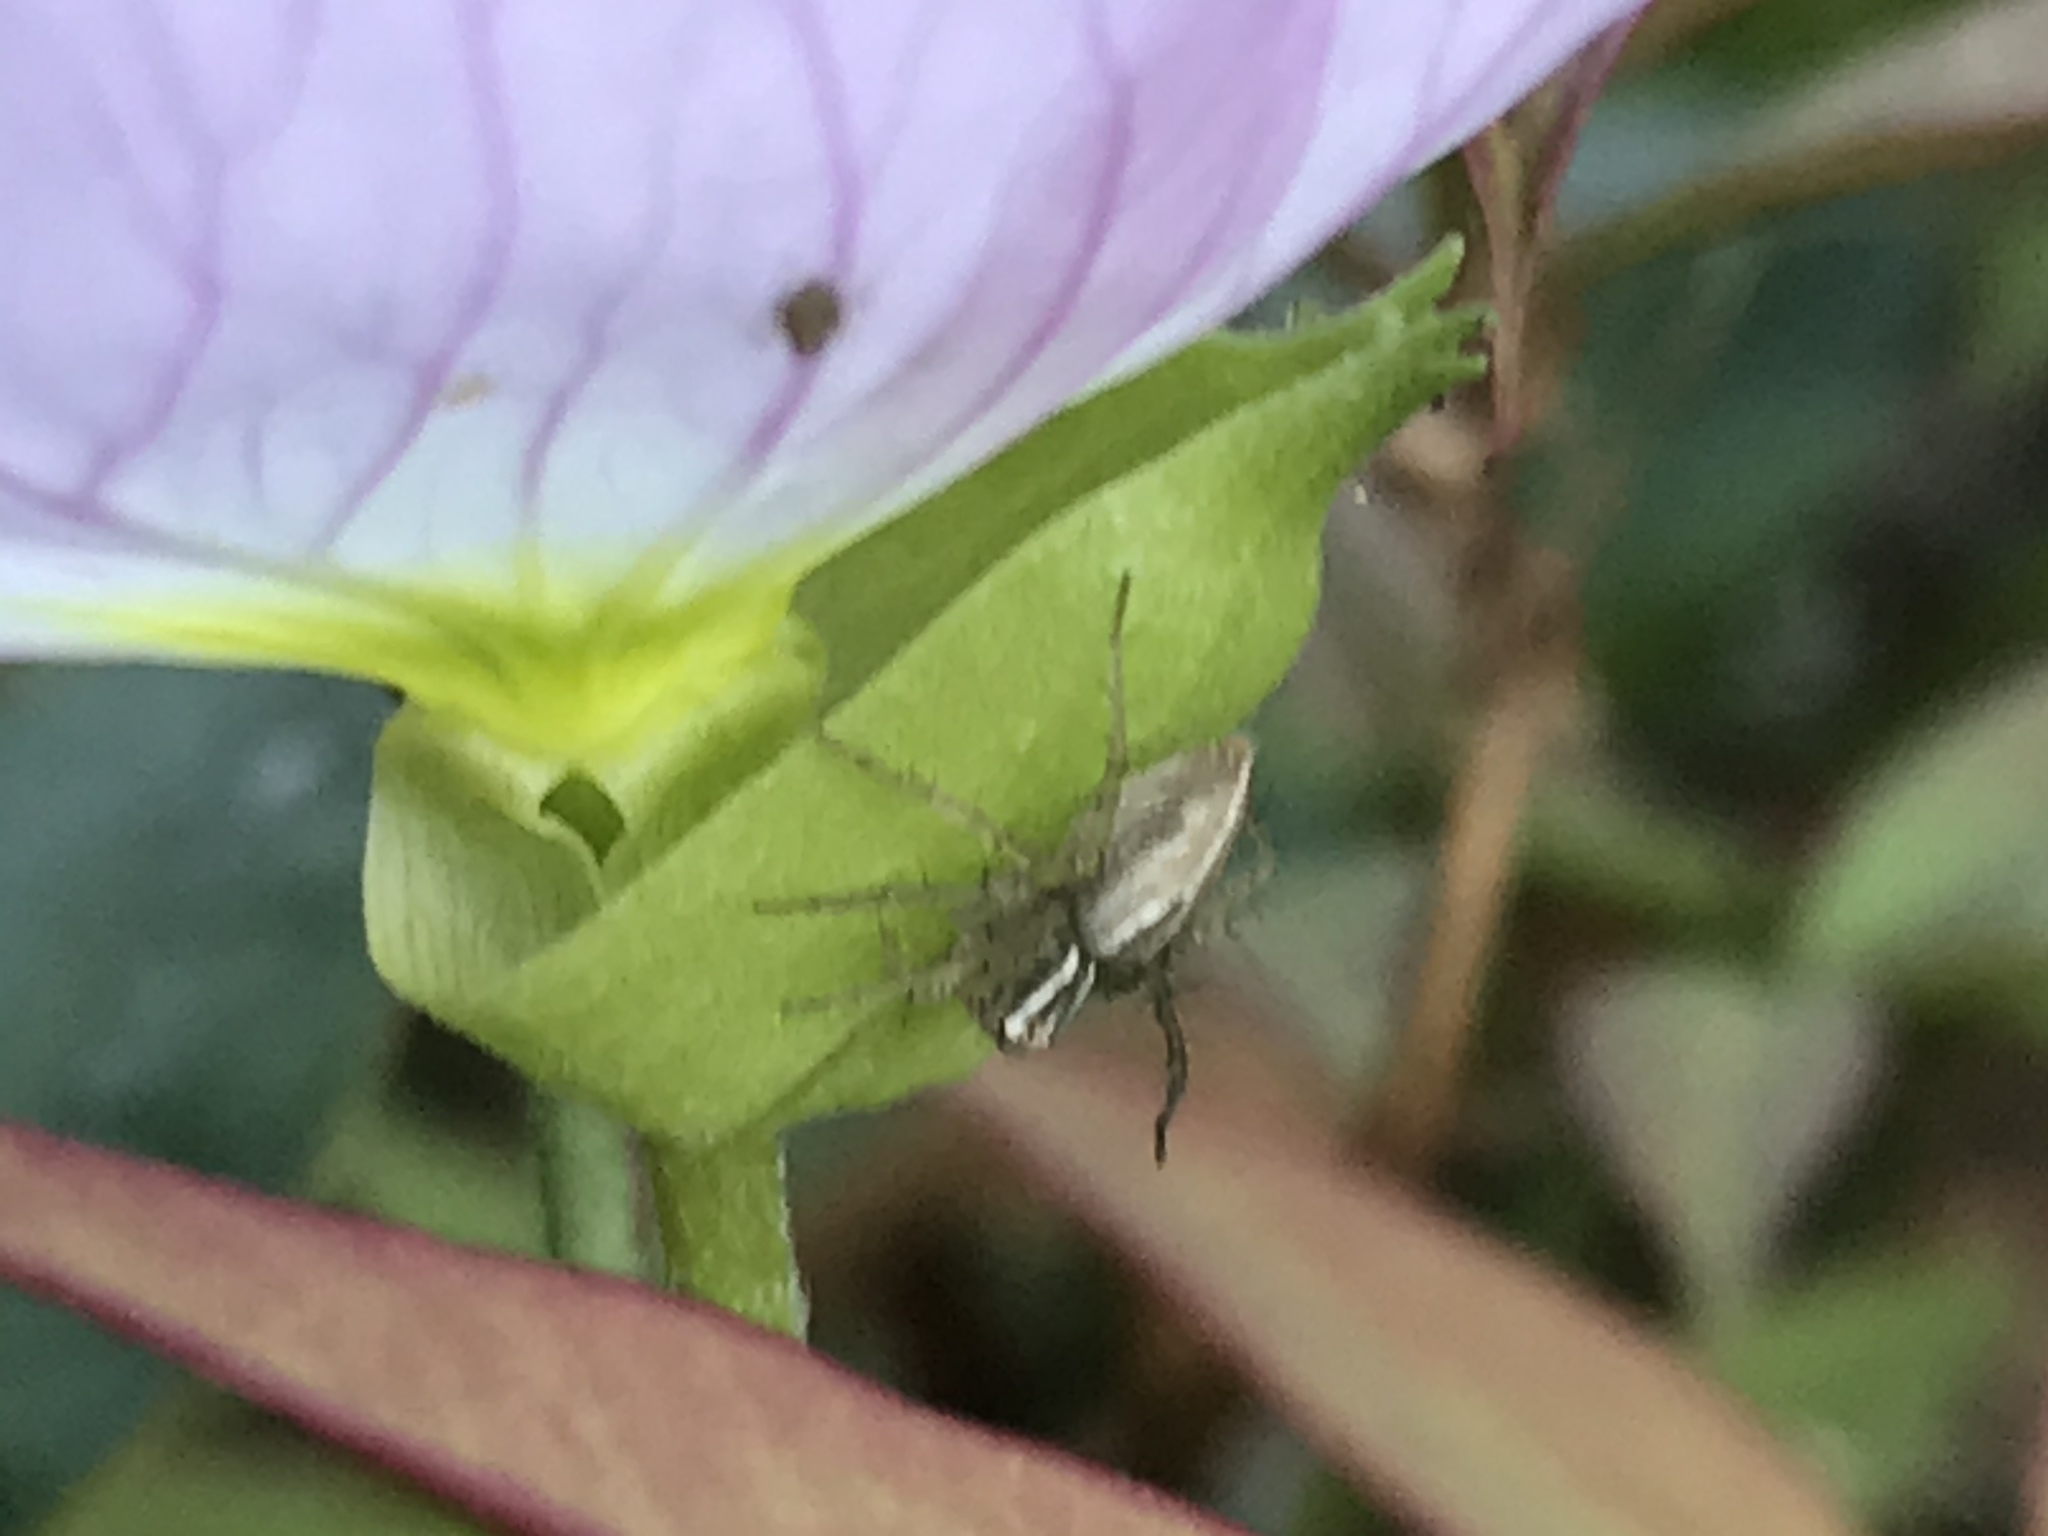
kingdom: Animalia
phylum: Arthropoda
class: Arachnida
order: Araneae
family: Oxyopidae
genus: Oxyopes
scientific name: Oxyopes salticus
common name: Lynx spiders
